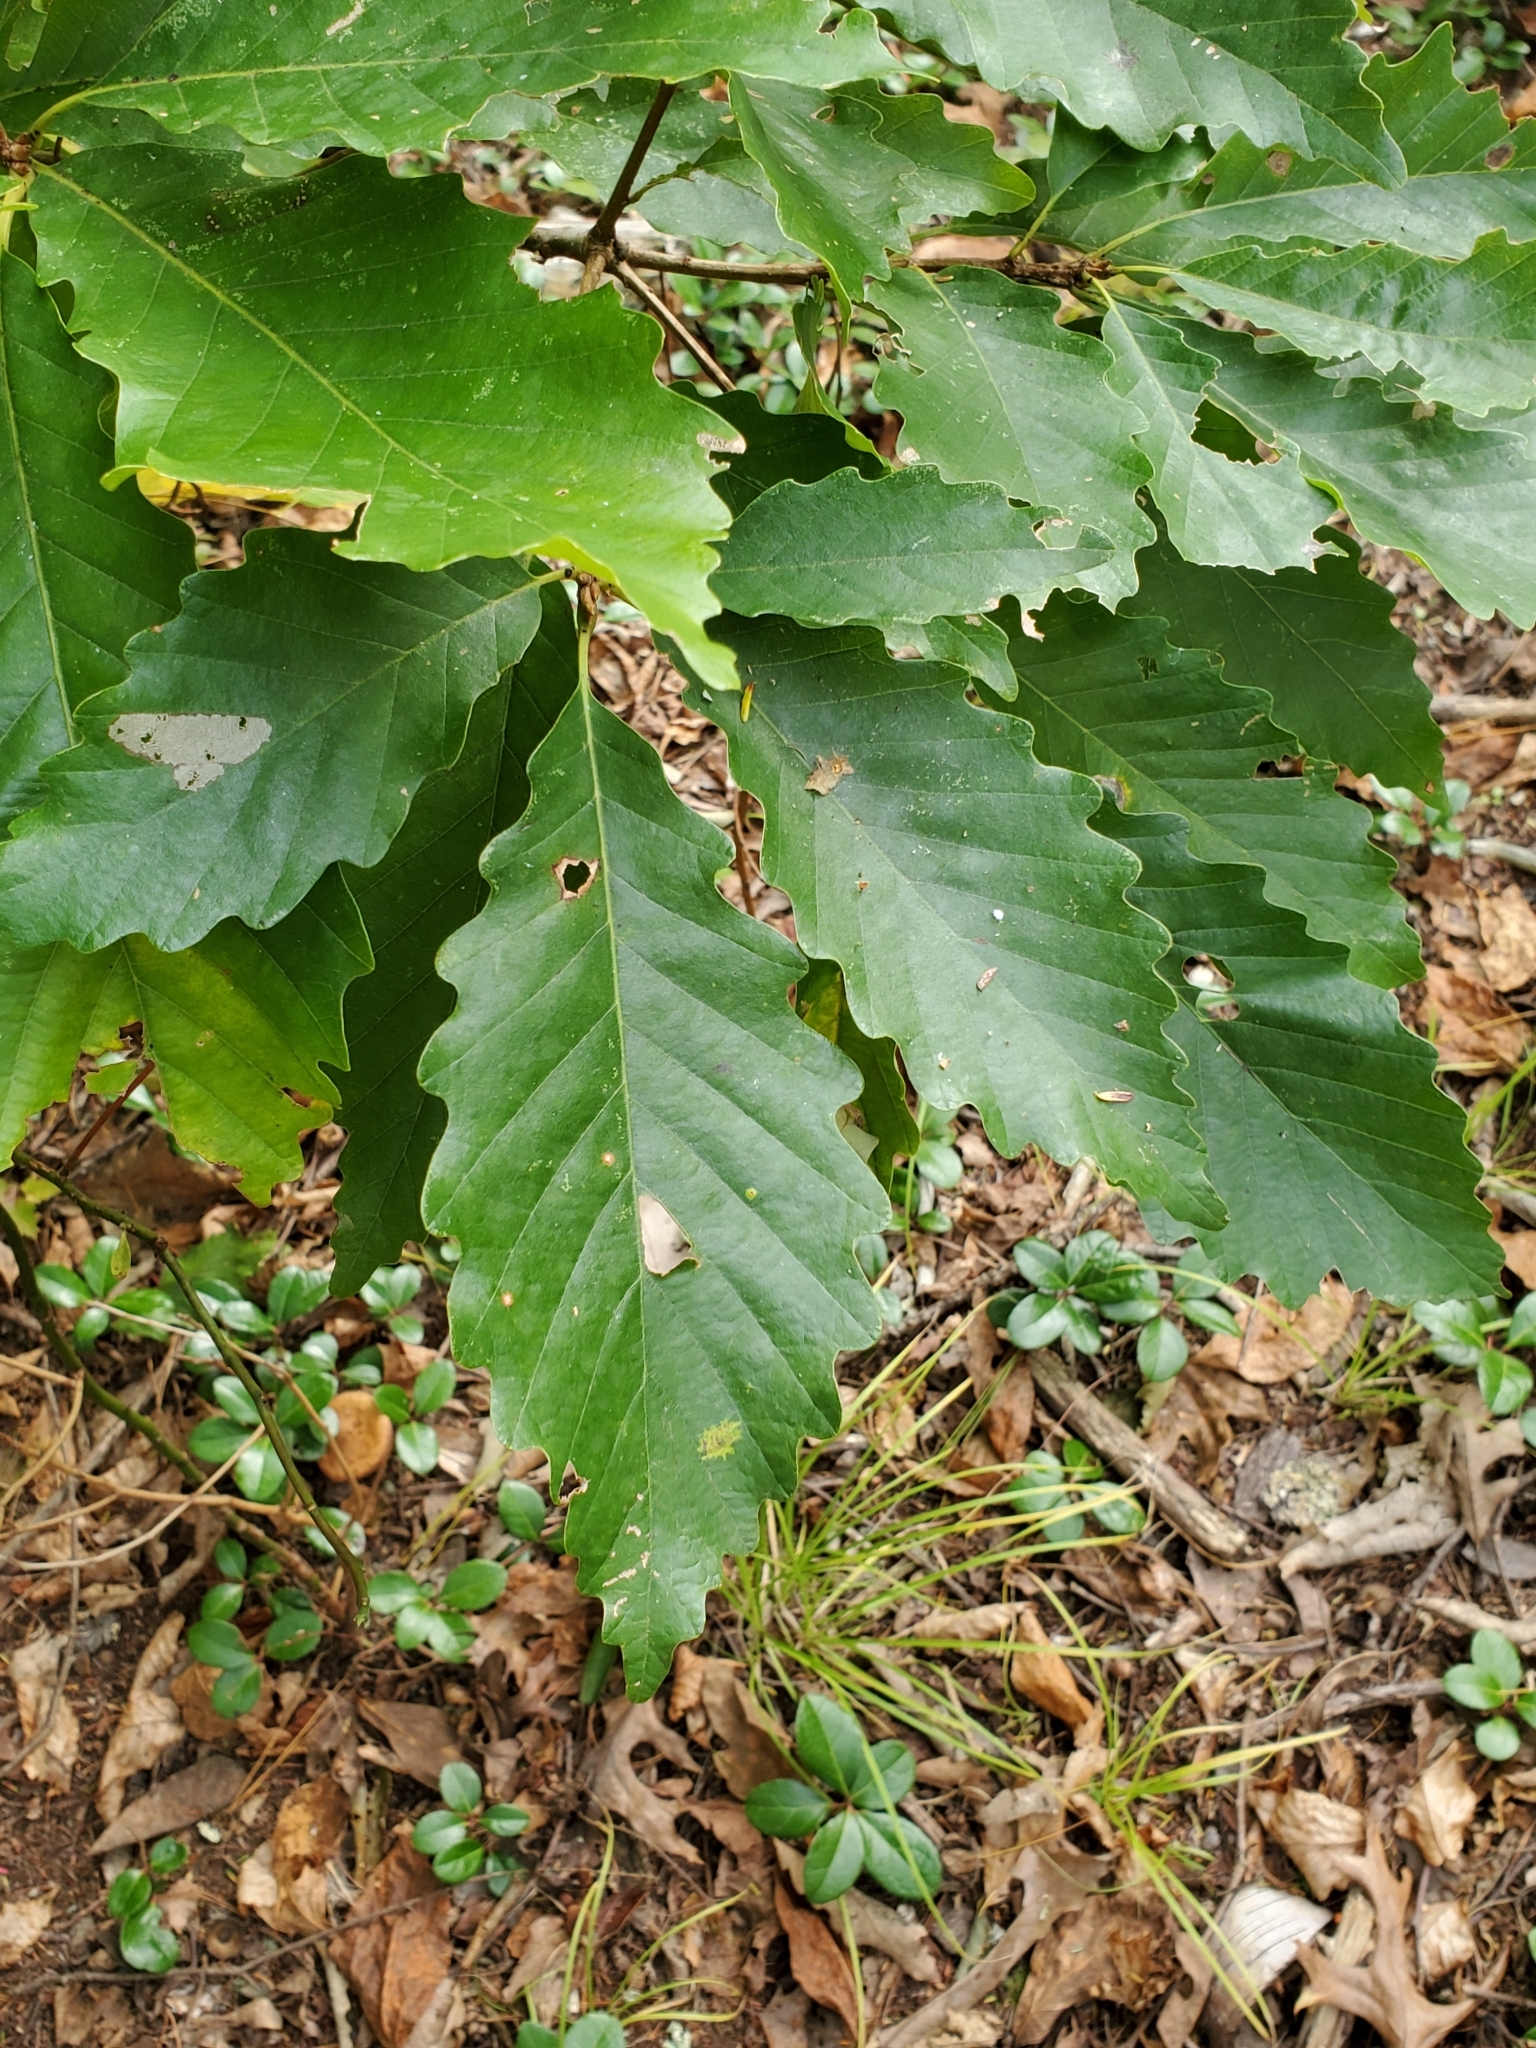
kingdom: Plantae
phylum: Tracheophyta
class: Magnoliopsida
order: Fagales
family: Fagaceae
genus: Quercus
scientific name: Quercus montana
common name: Chestnut oak
